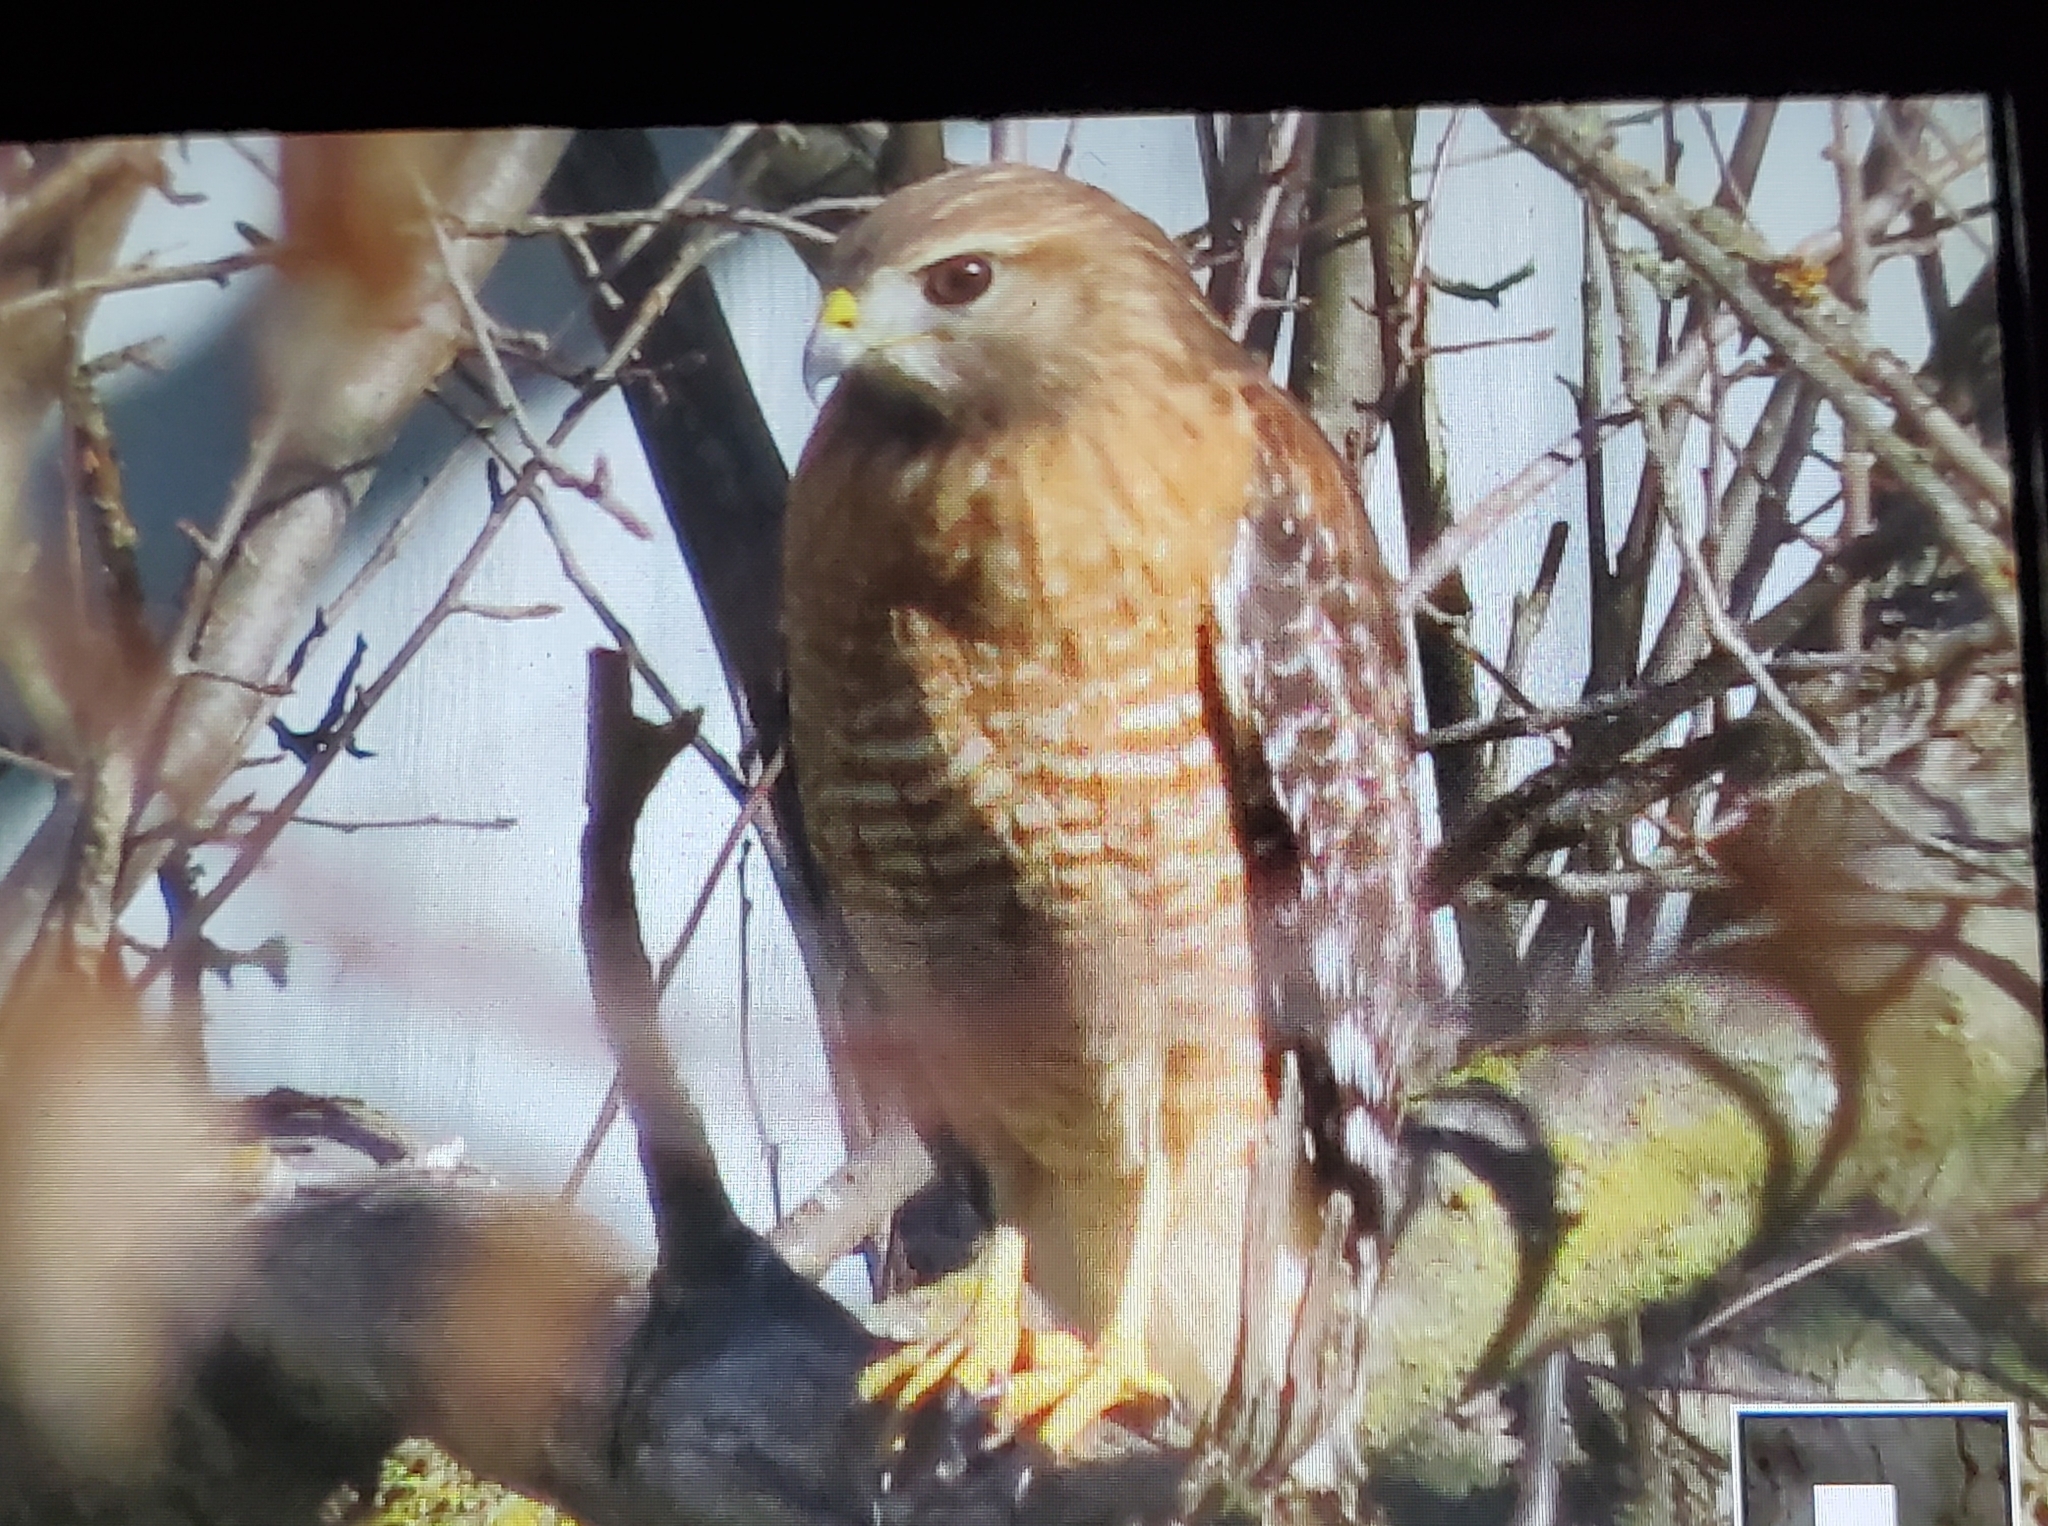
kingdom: Animalia
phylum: Chordata
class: Aves
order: Accipitriformes
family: Accipitridae
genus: Buteo
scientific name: Buteo lineatus
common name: Red-shouldered hawk
